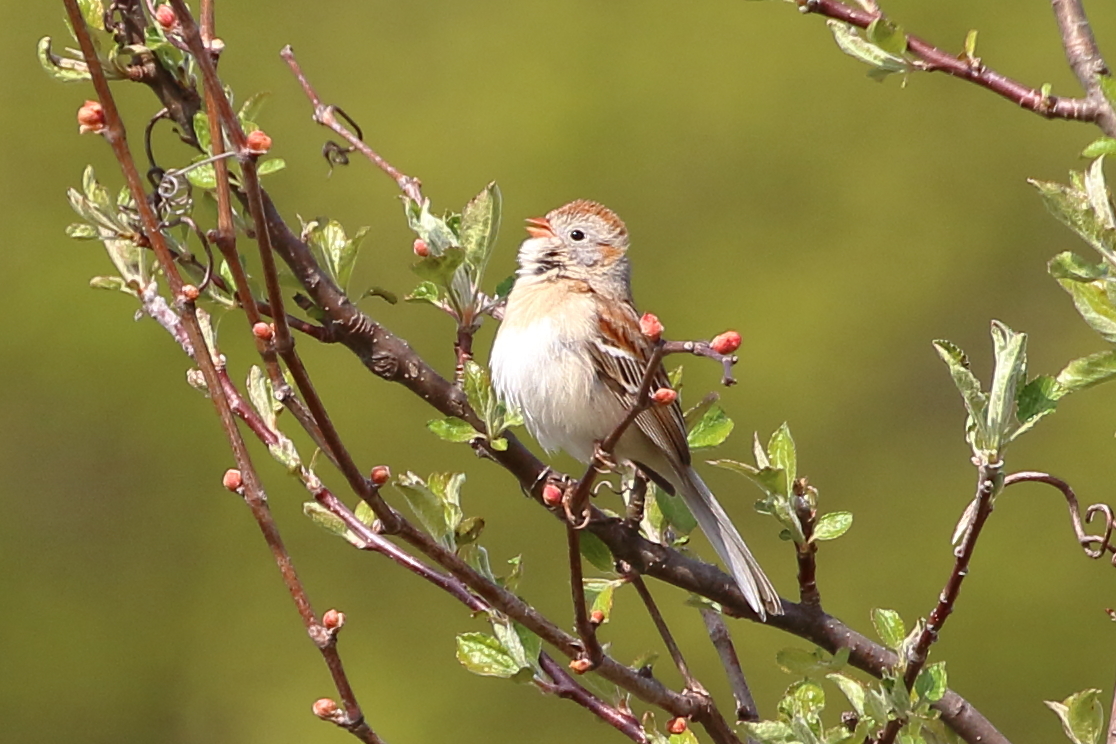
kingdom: Animalia
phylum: Chordata
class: Aves
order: Passeriformes
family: Passerellidae
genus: Spizella
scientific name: Spizella pusilla
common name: Field sparrow
